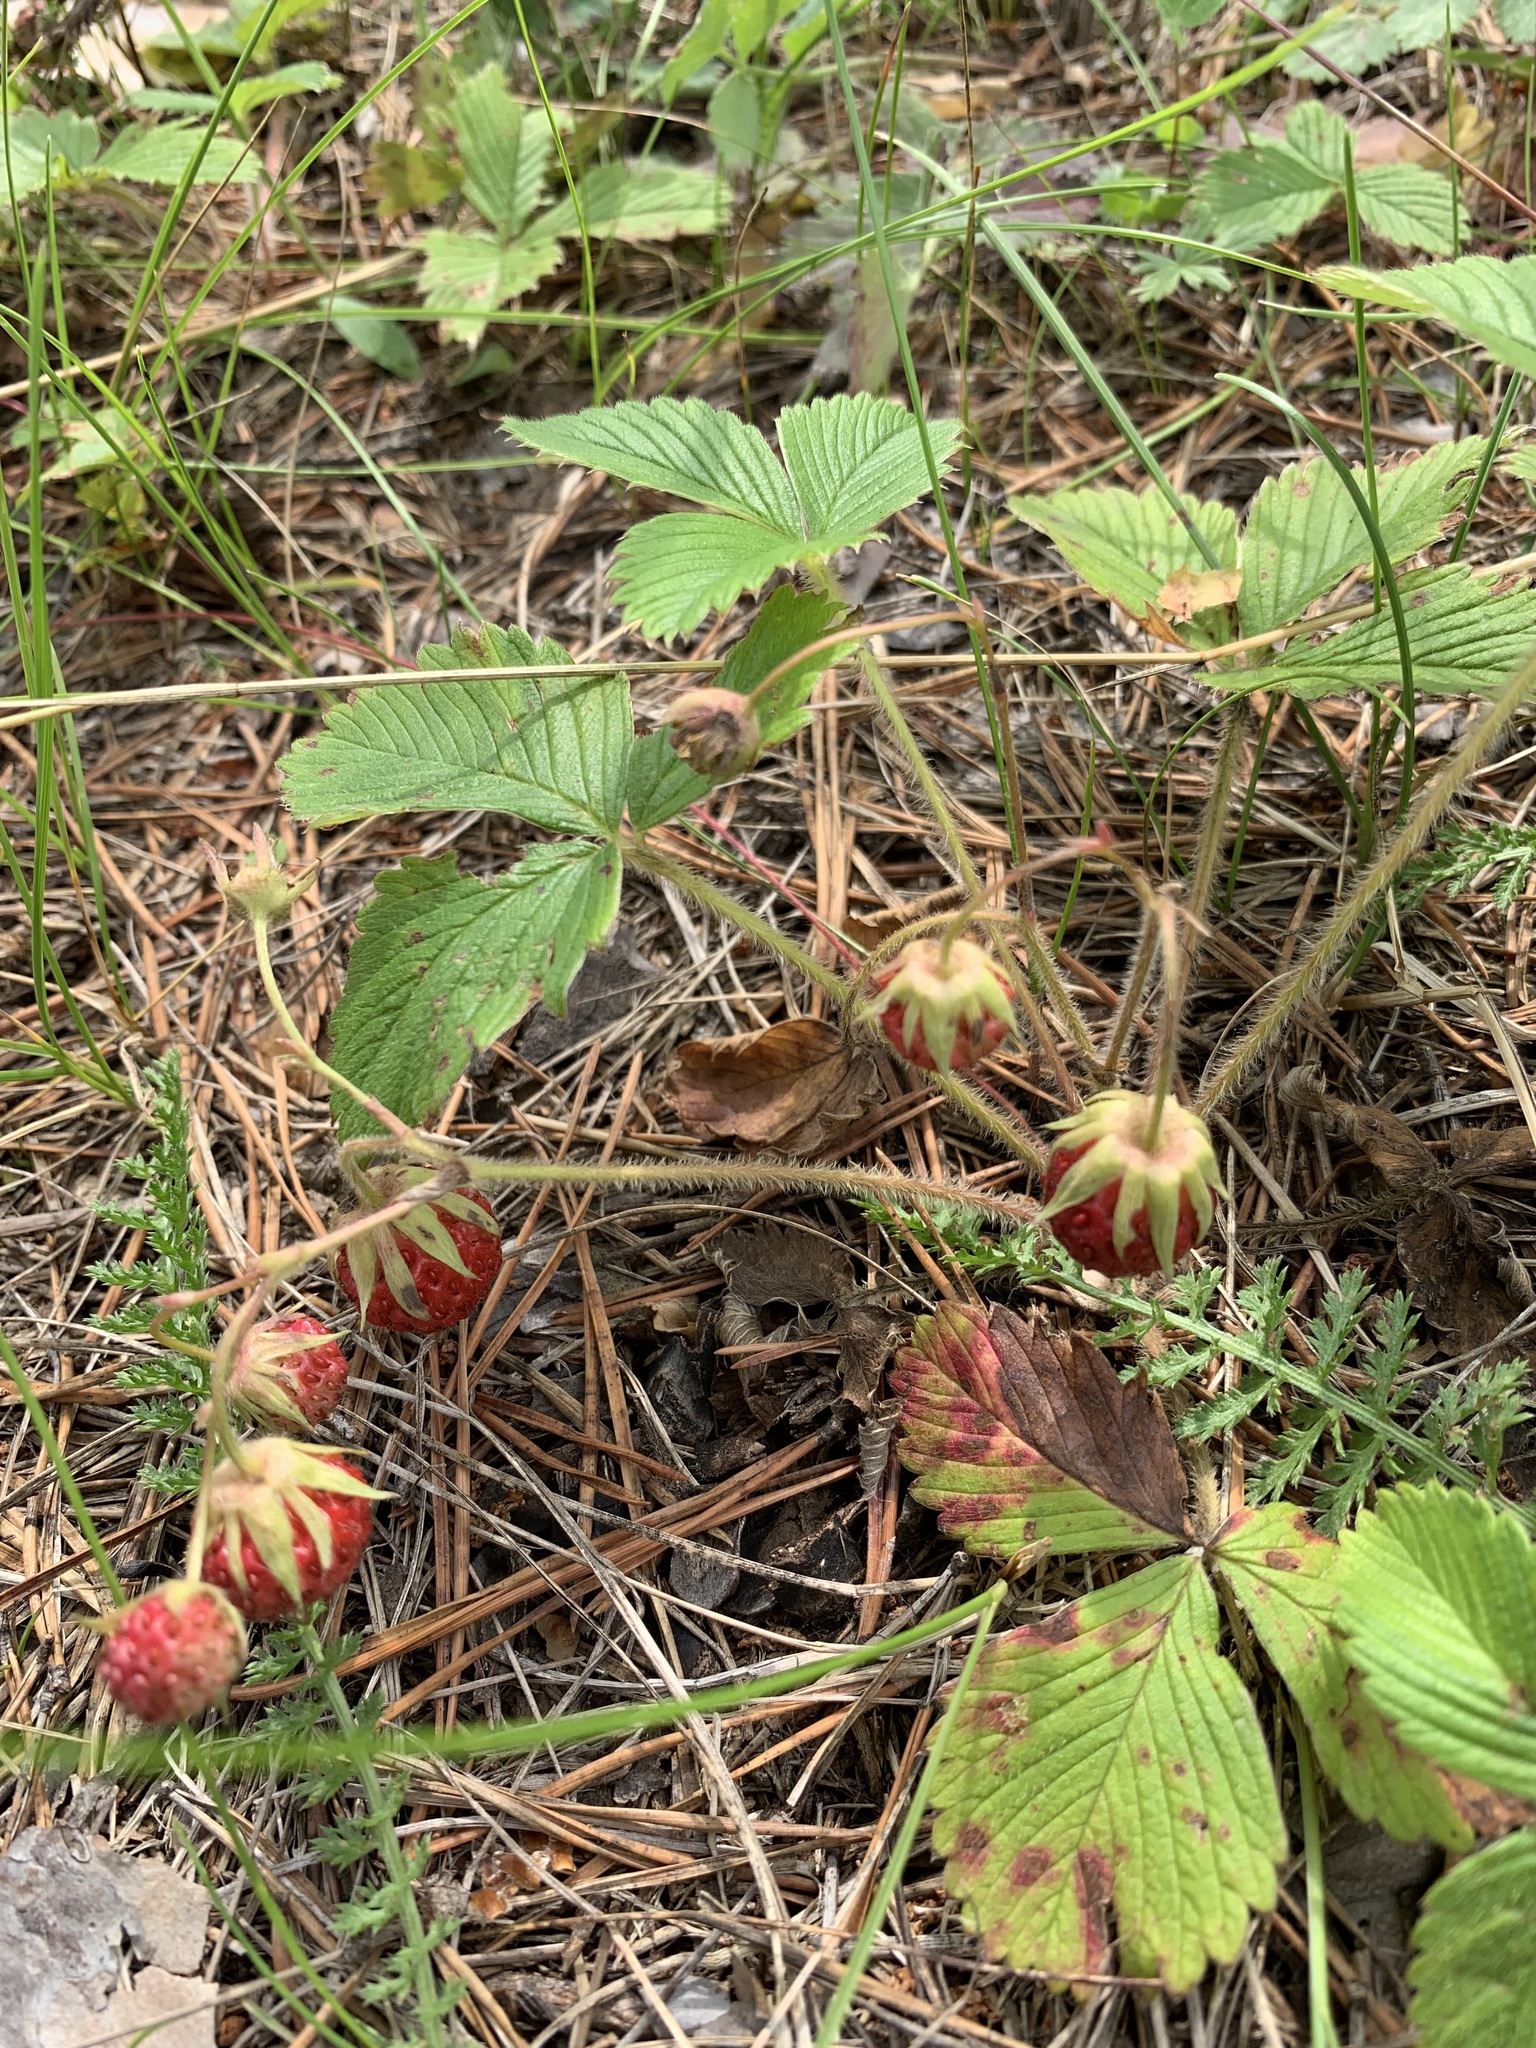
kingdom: Plantae
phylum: Tracheophyta
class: Magnoliopsida
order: Rosales
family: Rosaceae
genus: Fragaria
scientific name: Fragaria viridis
